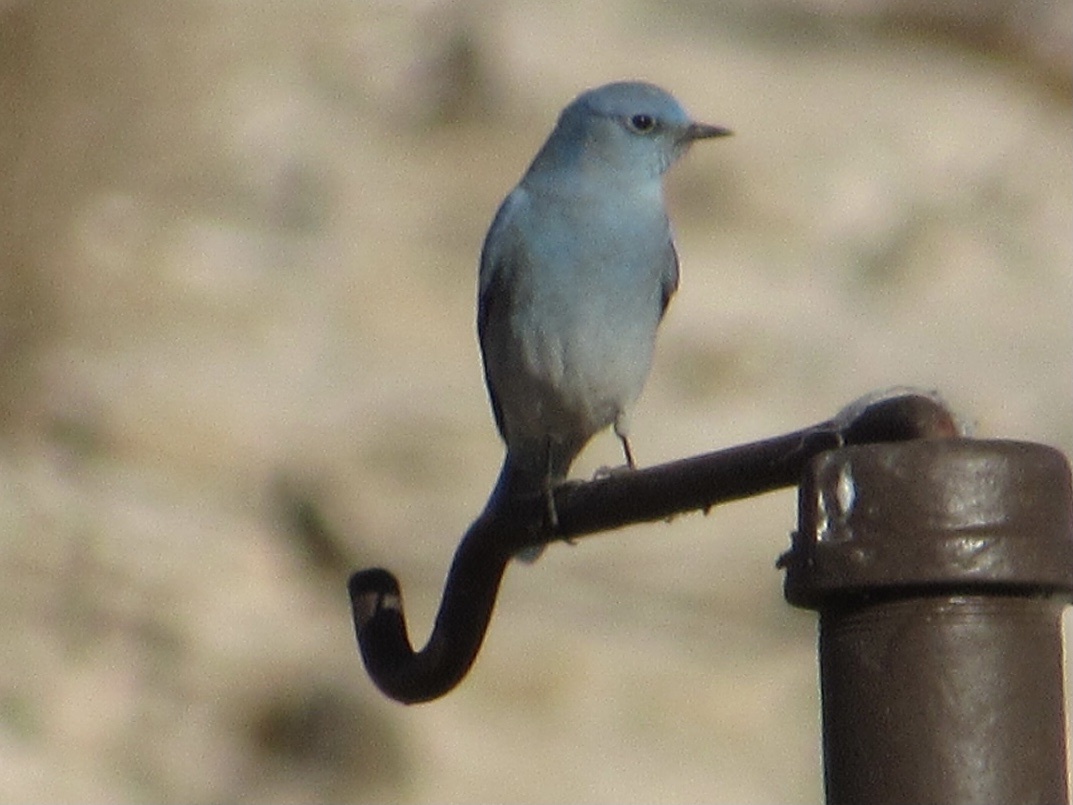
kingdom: Animalia
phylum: Chordata
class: Aves
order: Passeriformes
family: Turdidae
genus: Sialia
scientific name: Sialia currucoides
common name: Mountain bluebird
